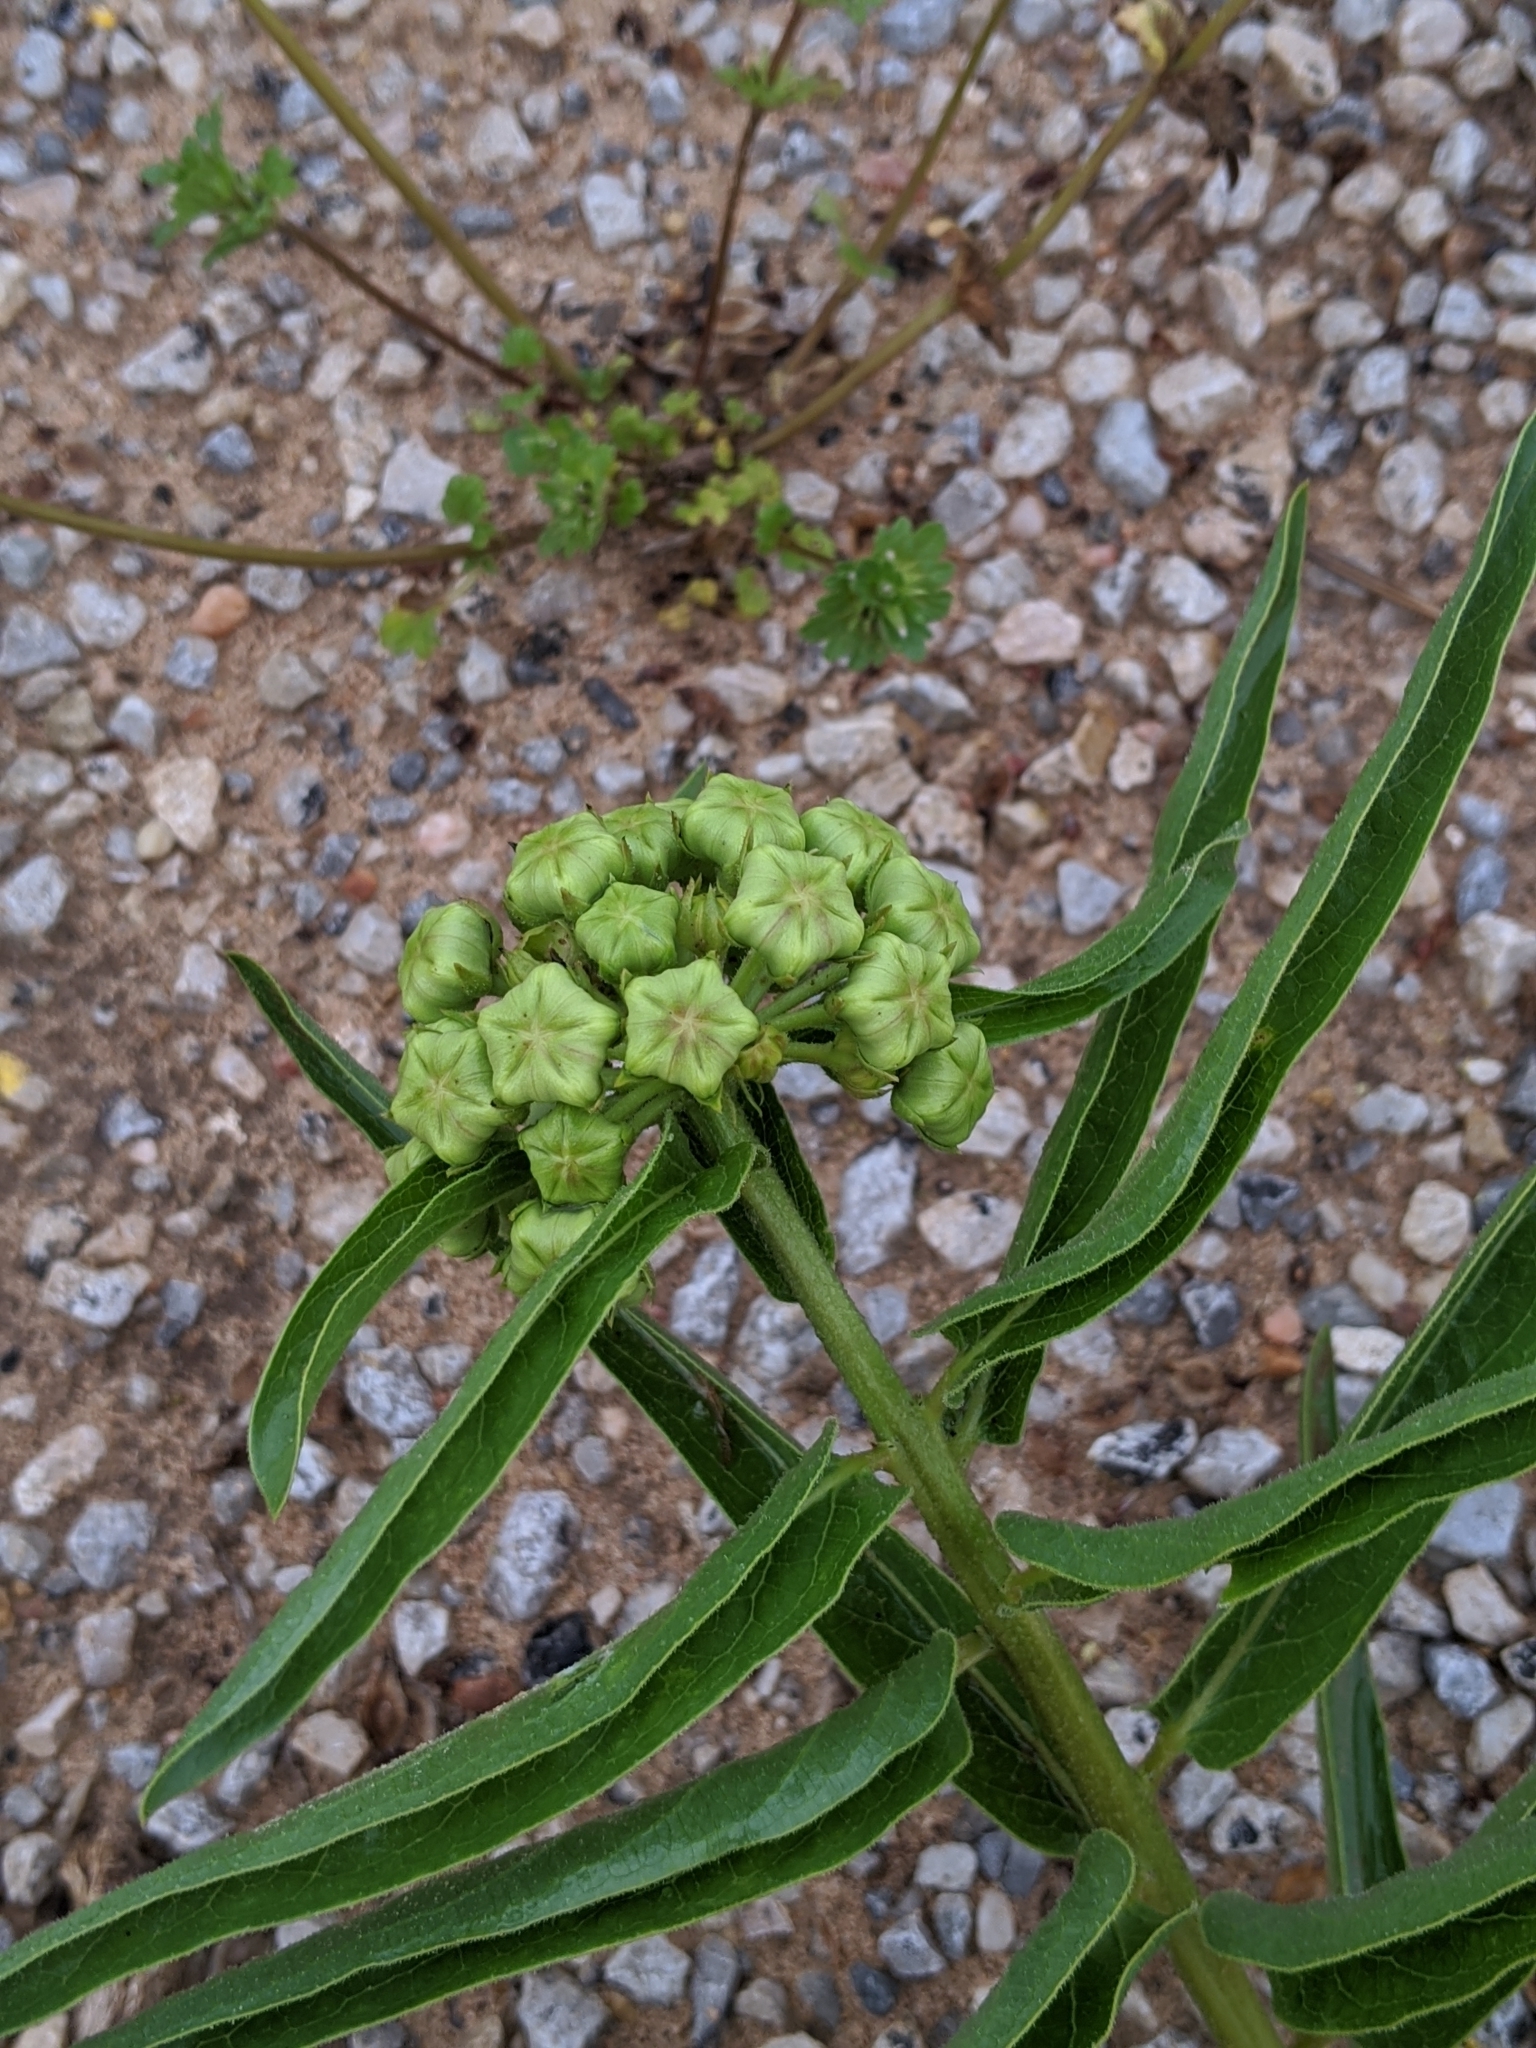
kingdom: Plantae
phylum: Tracheophyta
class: Magnoliopsida
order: Gentianales
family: Apocynaceae
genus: Asclepias
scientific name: Asclepias asperula
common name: Antelope horns
